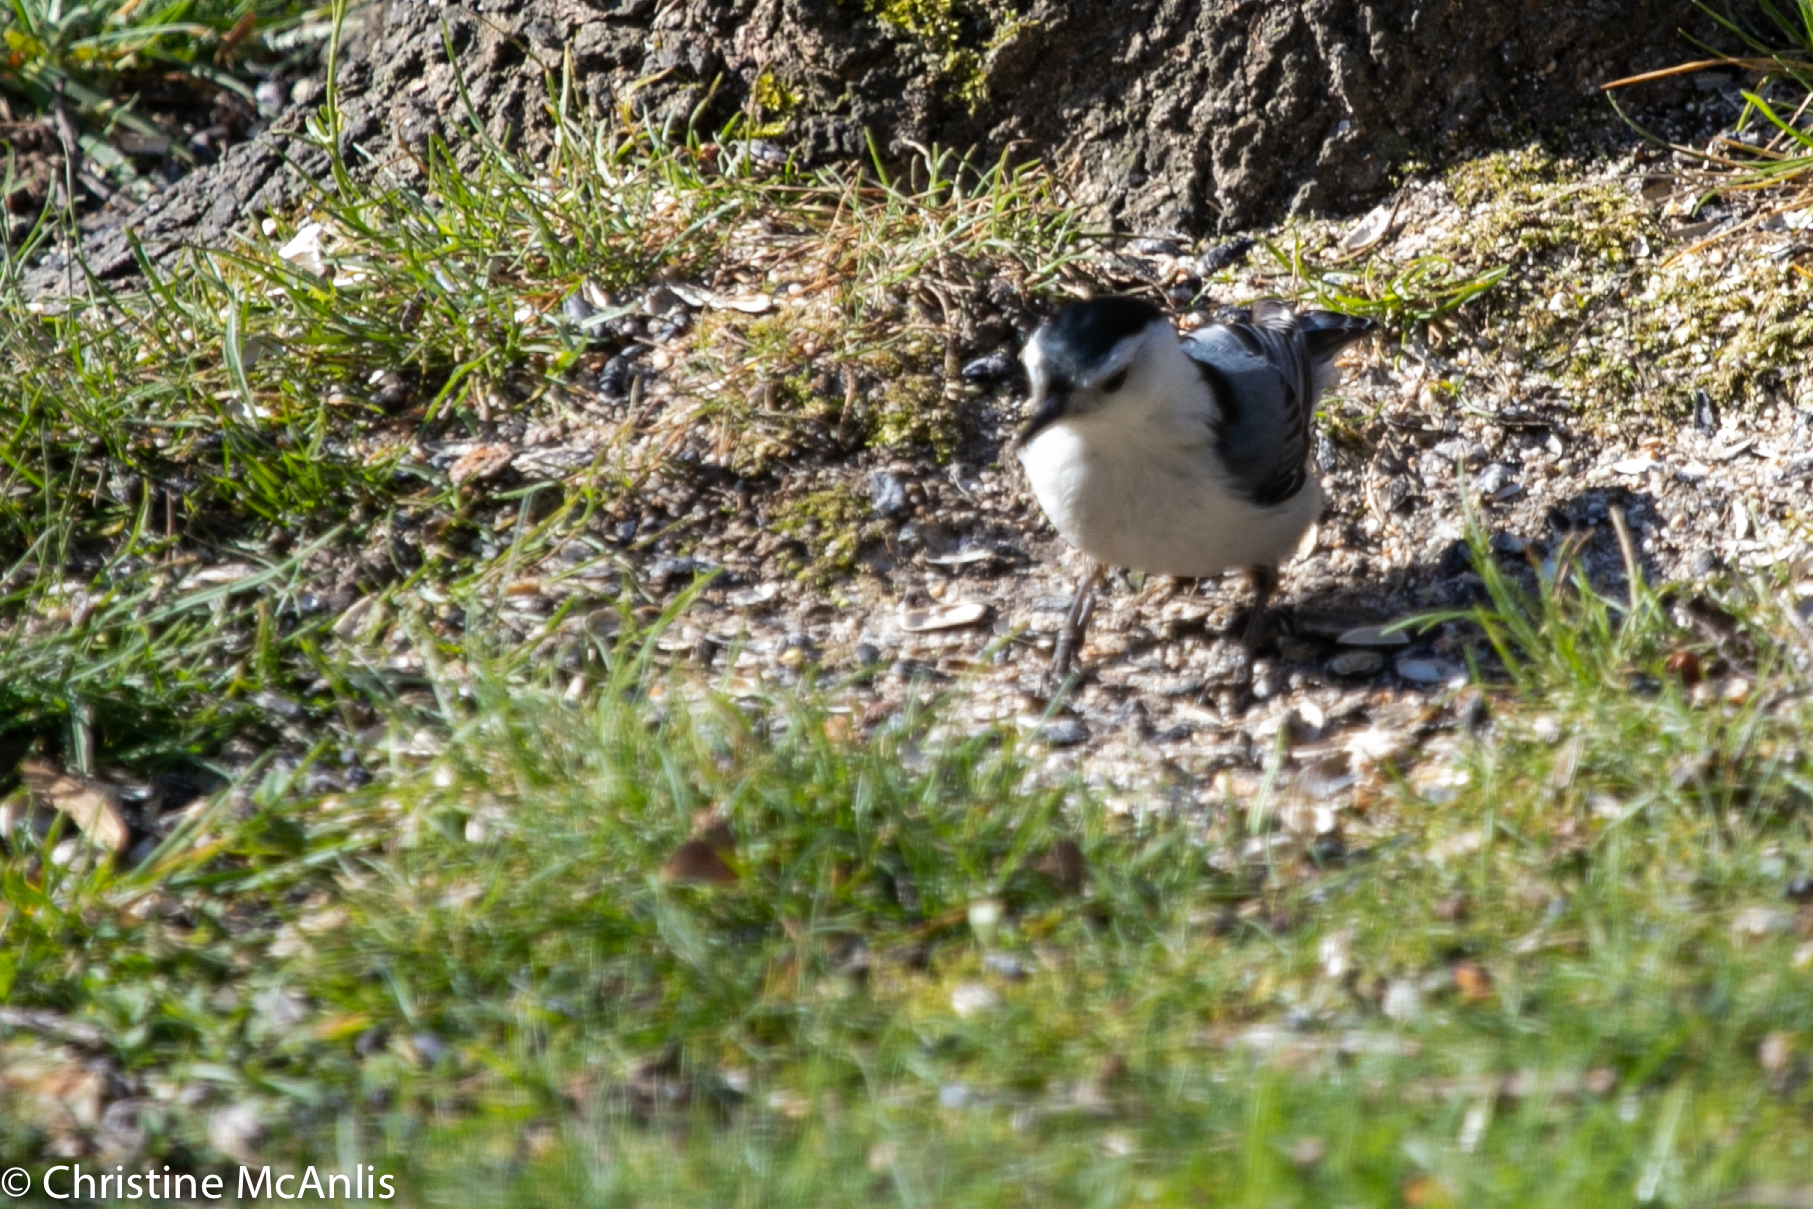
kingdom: Animalia
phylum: Chordata
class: Aves
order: Passeriformes
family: Sittidae
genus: Sitta
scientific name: Sitta carolinensis
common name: White-breasted nuthatch
